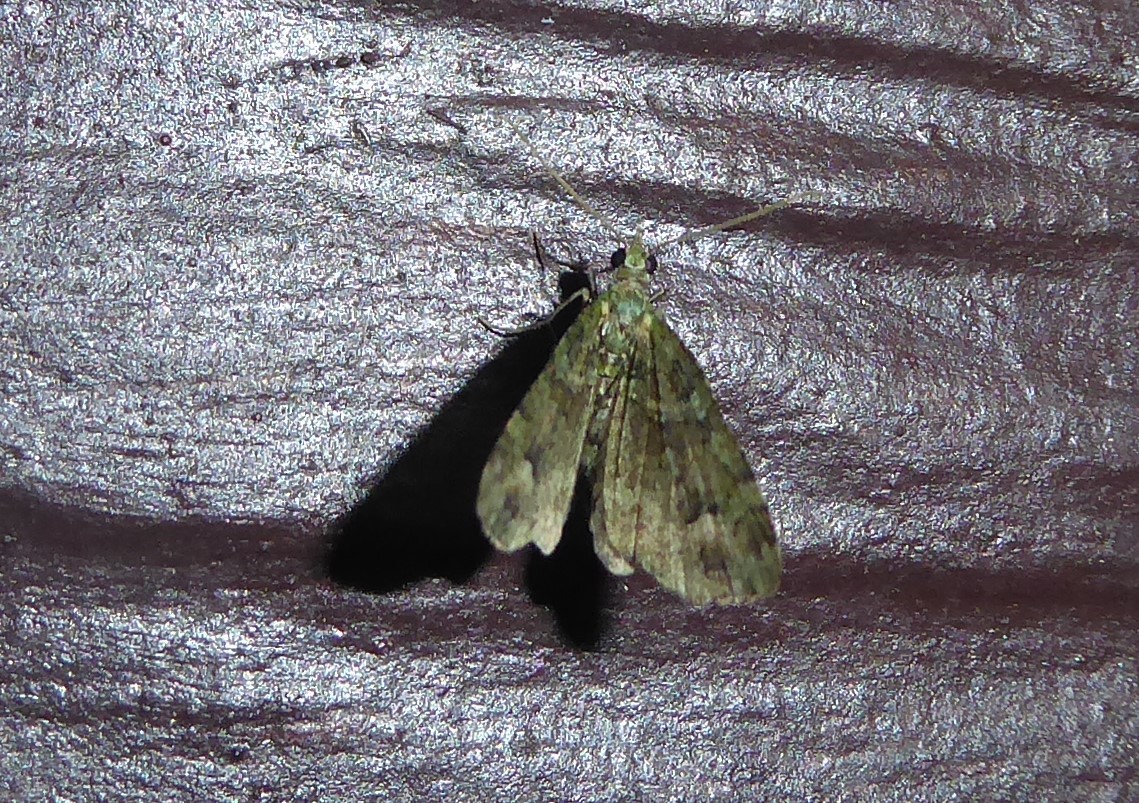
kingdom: Animalia
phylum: Arthropoda
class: Insecta
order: Lepidoptera
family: Geometridae
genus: Idaea
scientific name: Idaea mutanda
